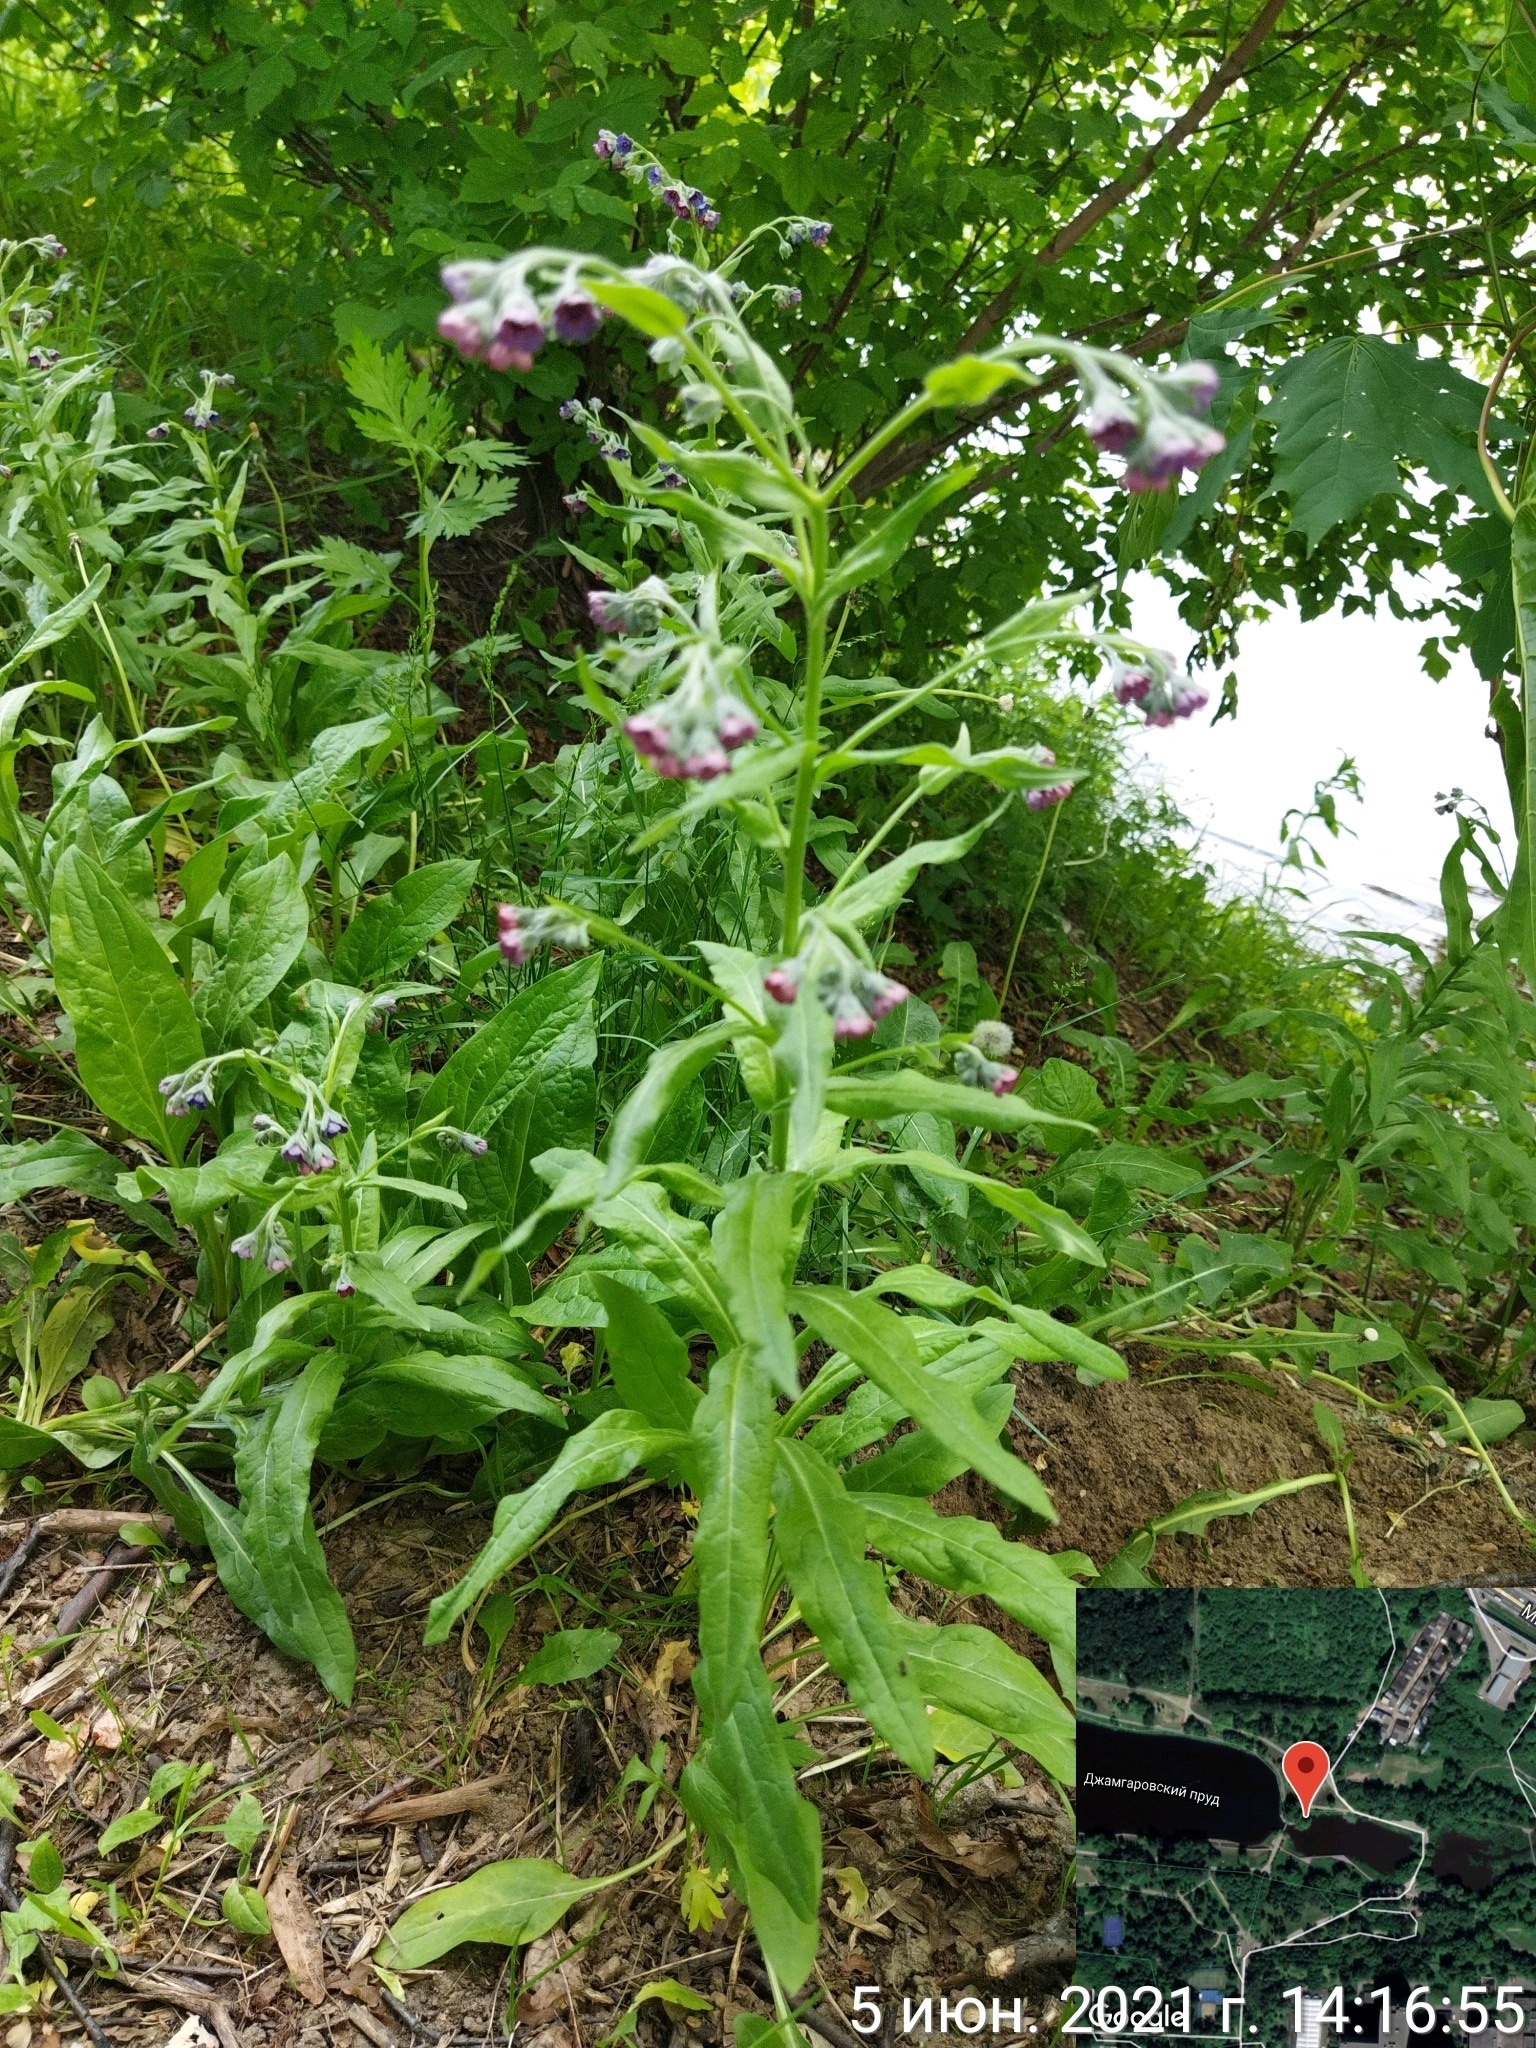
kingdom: Plantae
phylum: Tracheophyta
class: Magnoliopsida
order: Boraginales
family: Boraginaceae
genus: Cynoglossum
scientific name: Cynoglossum officinale
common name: Hound's-tongue
